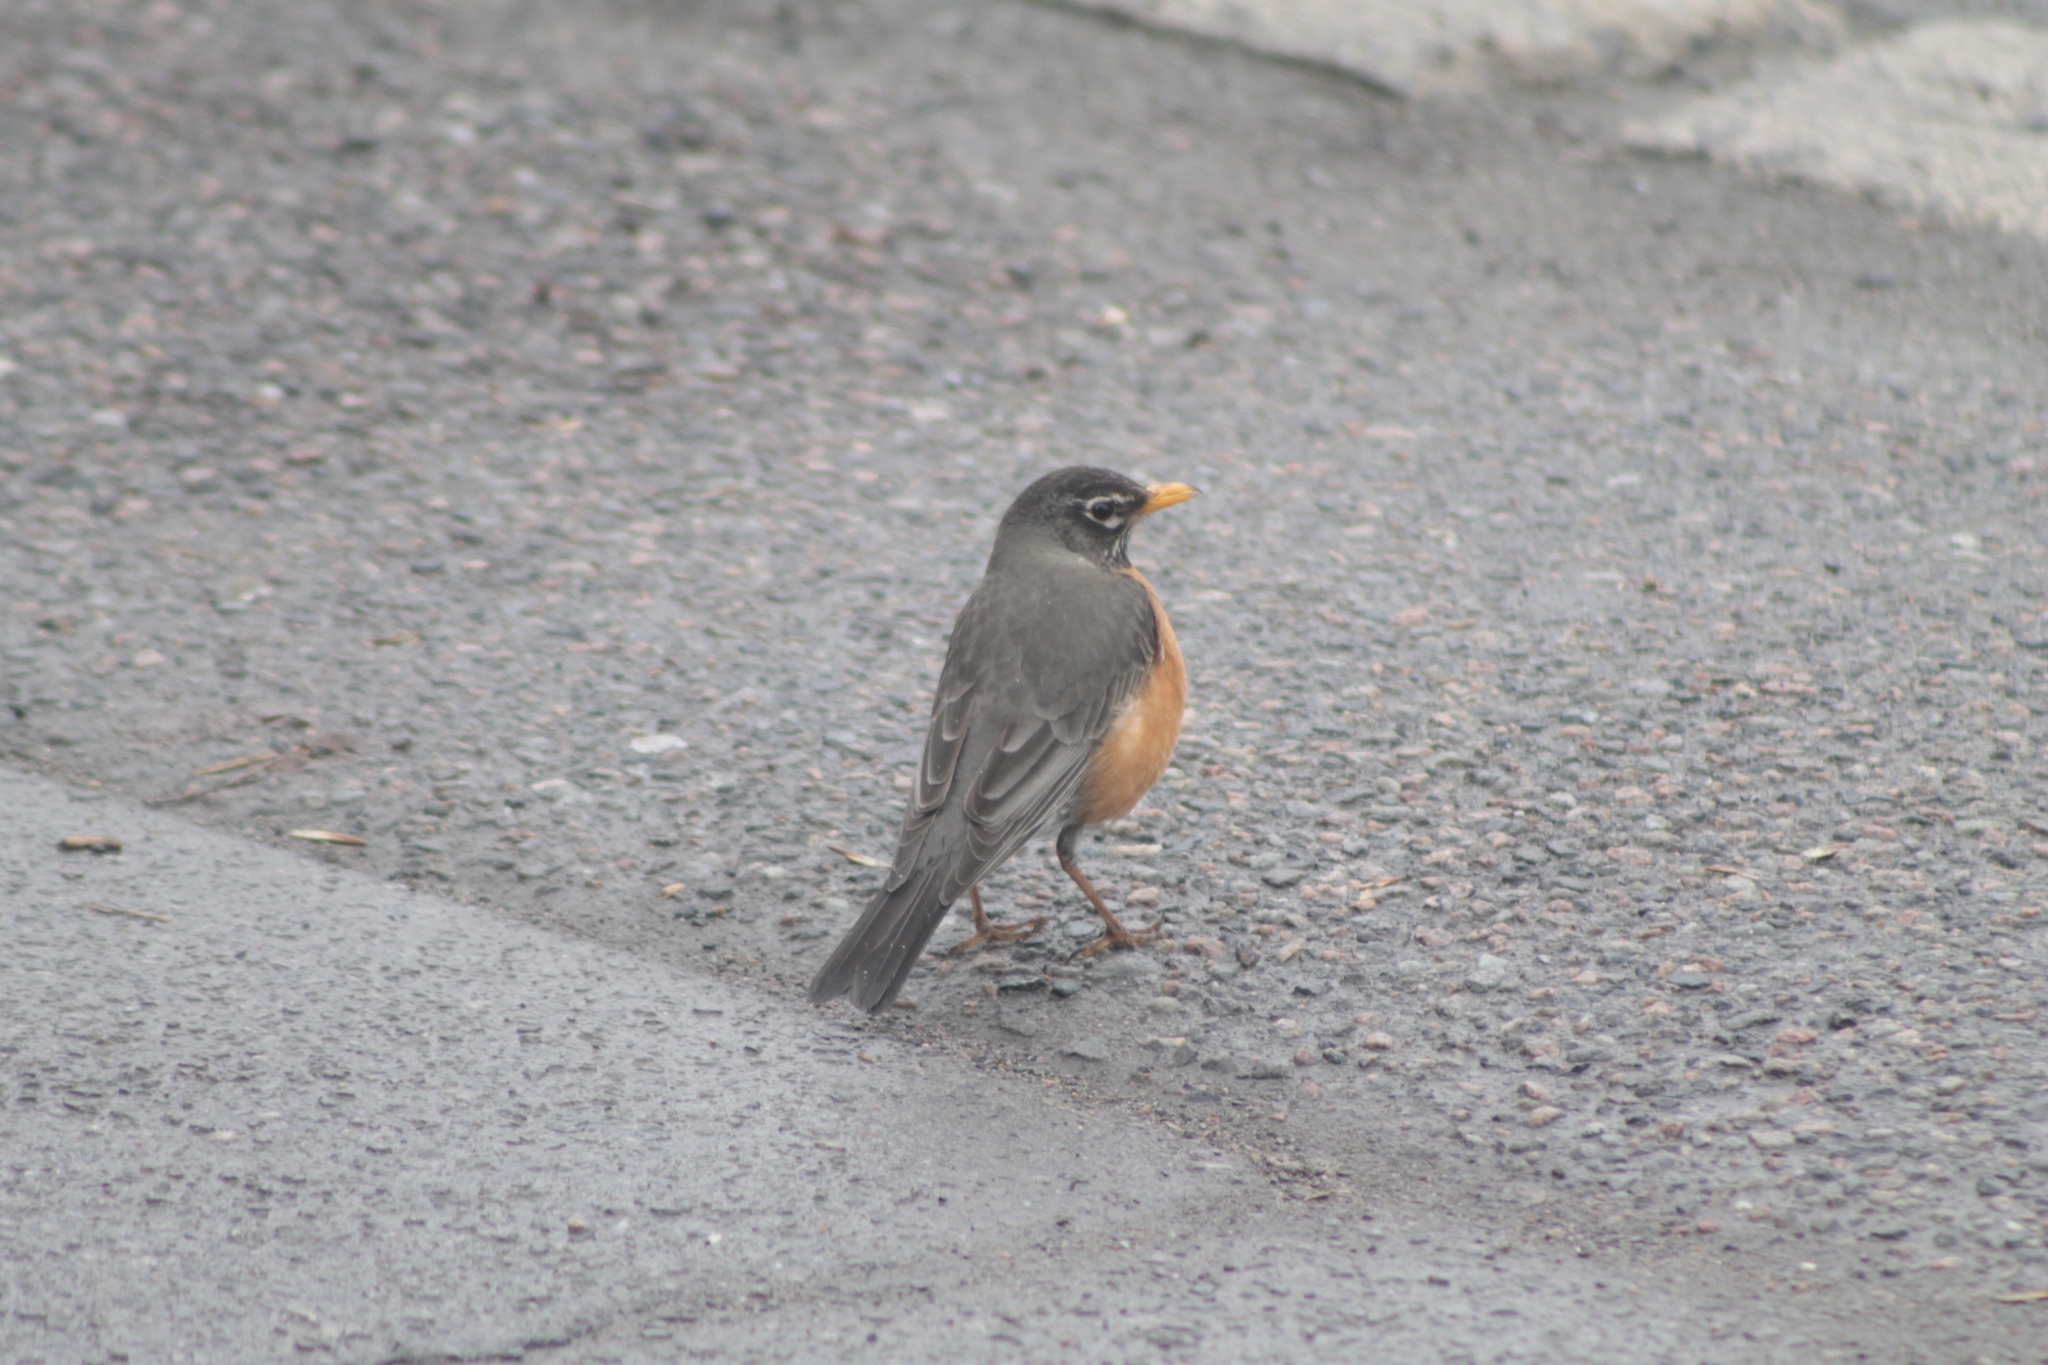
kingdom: Animalia
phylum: Chordata
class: Aves
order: Passeriformes
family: Turdidae
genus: Turdus
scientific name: Turdus migratorius
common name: American robin
